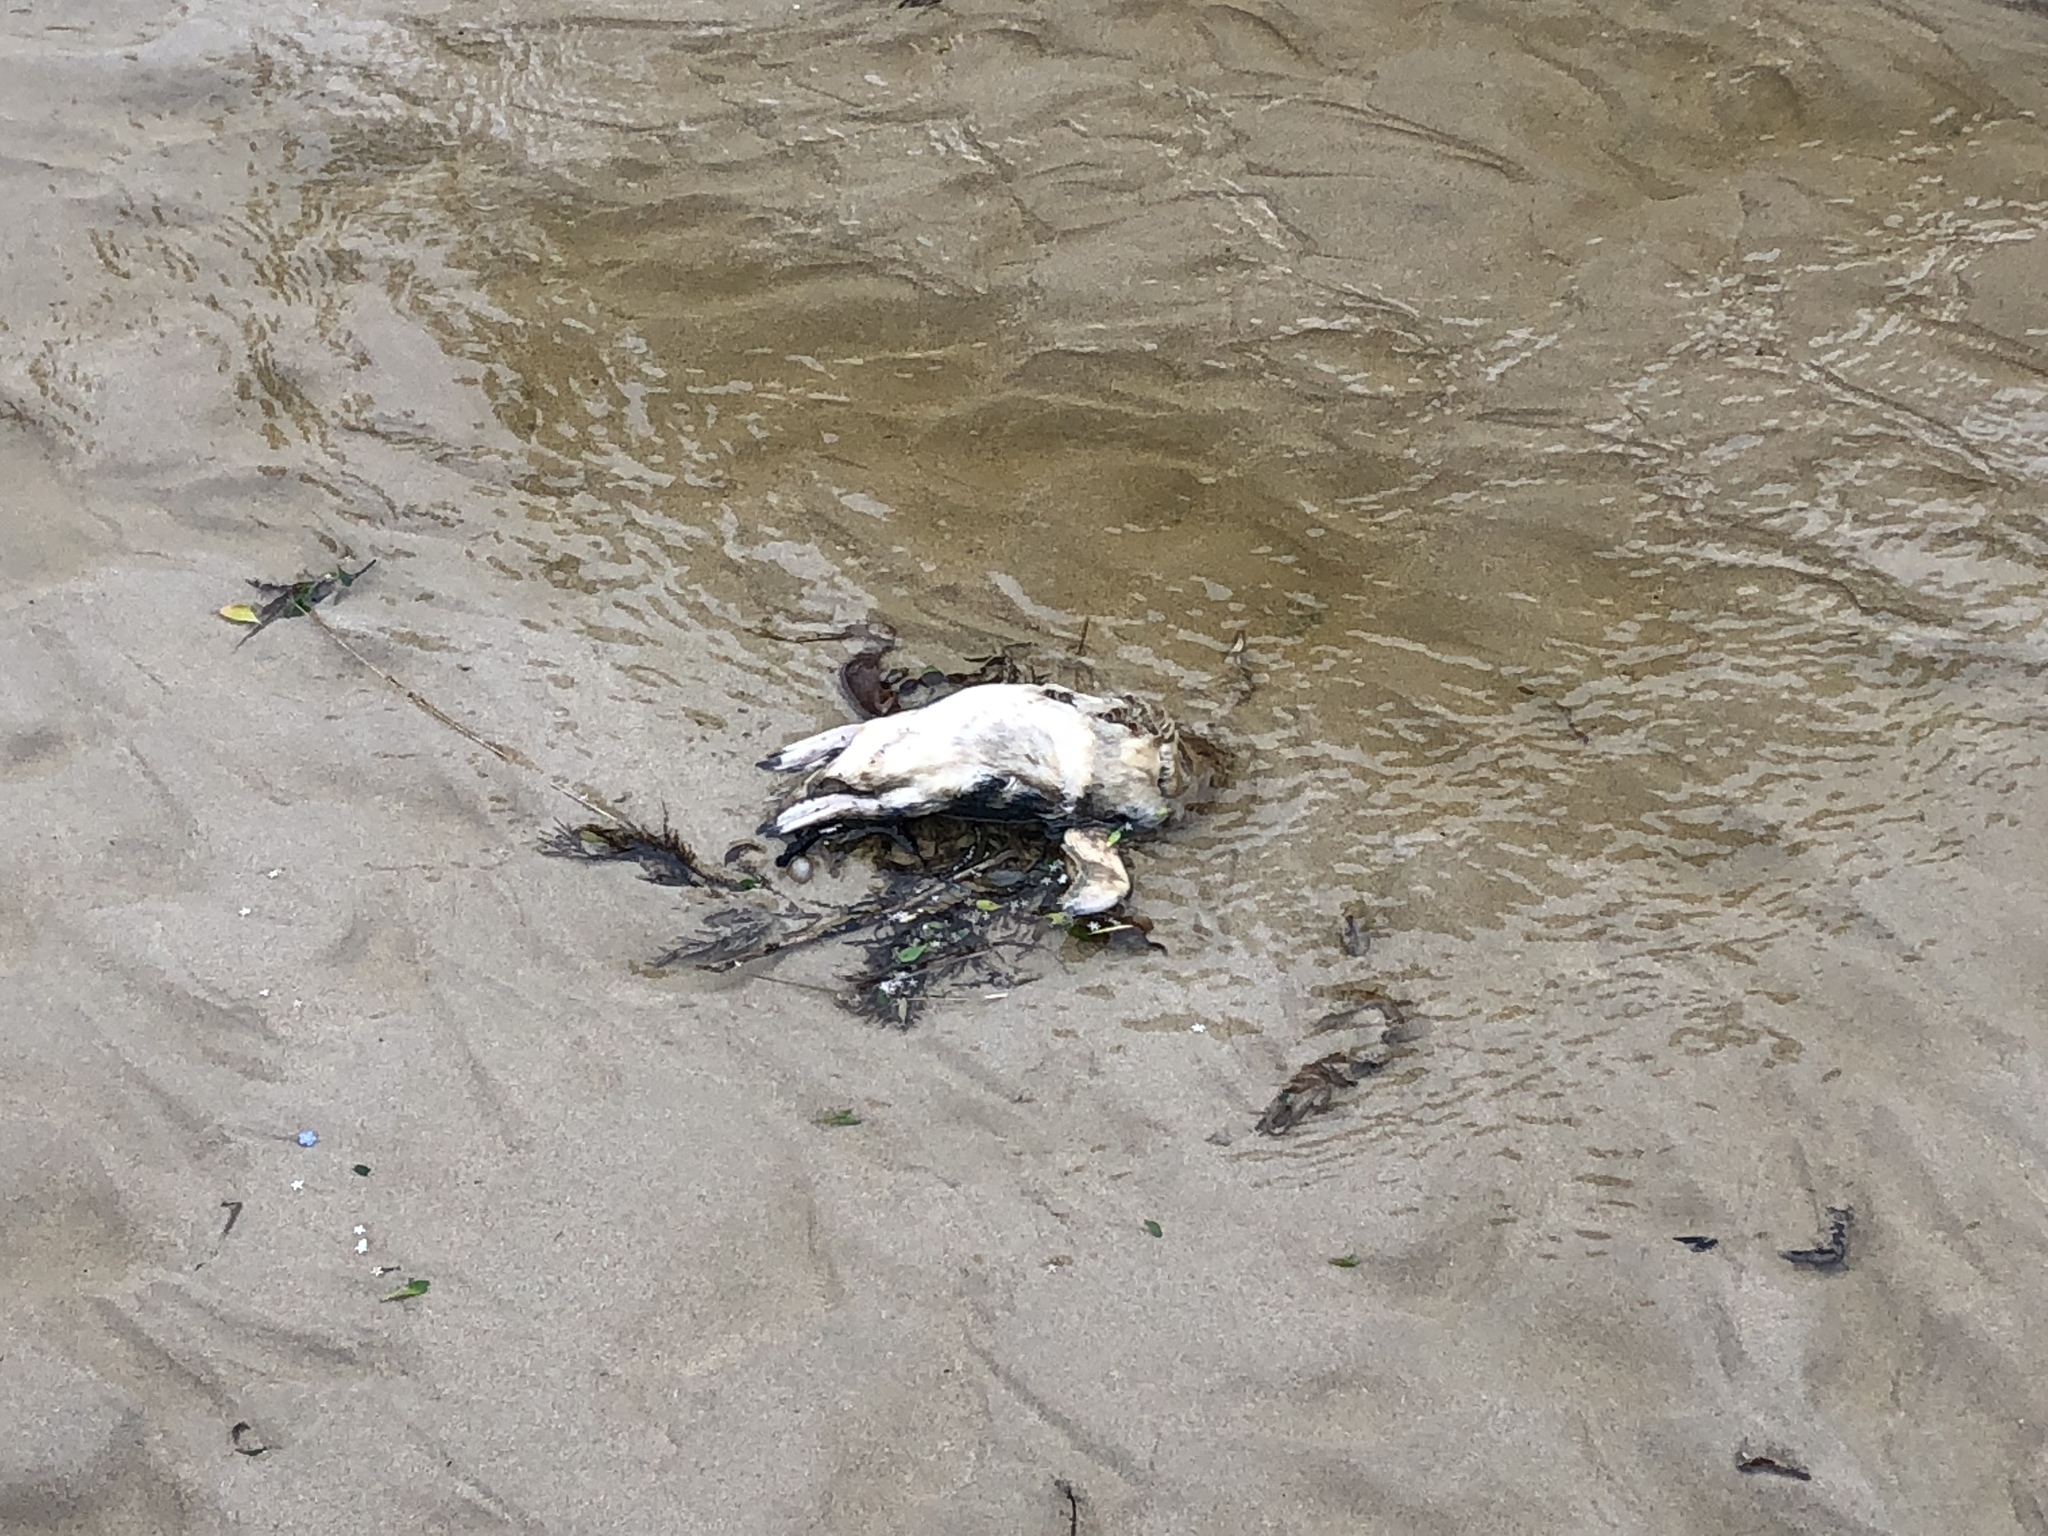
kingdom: Animalia
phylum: Chordata
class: Aves
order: Sphenisciformes
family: Spheniscidae
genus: Eudyptula
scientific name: Eudyptula minor
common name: Little penguin
